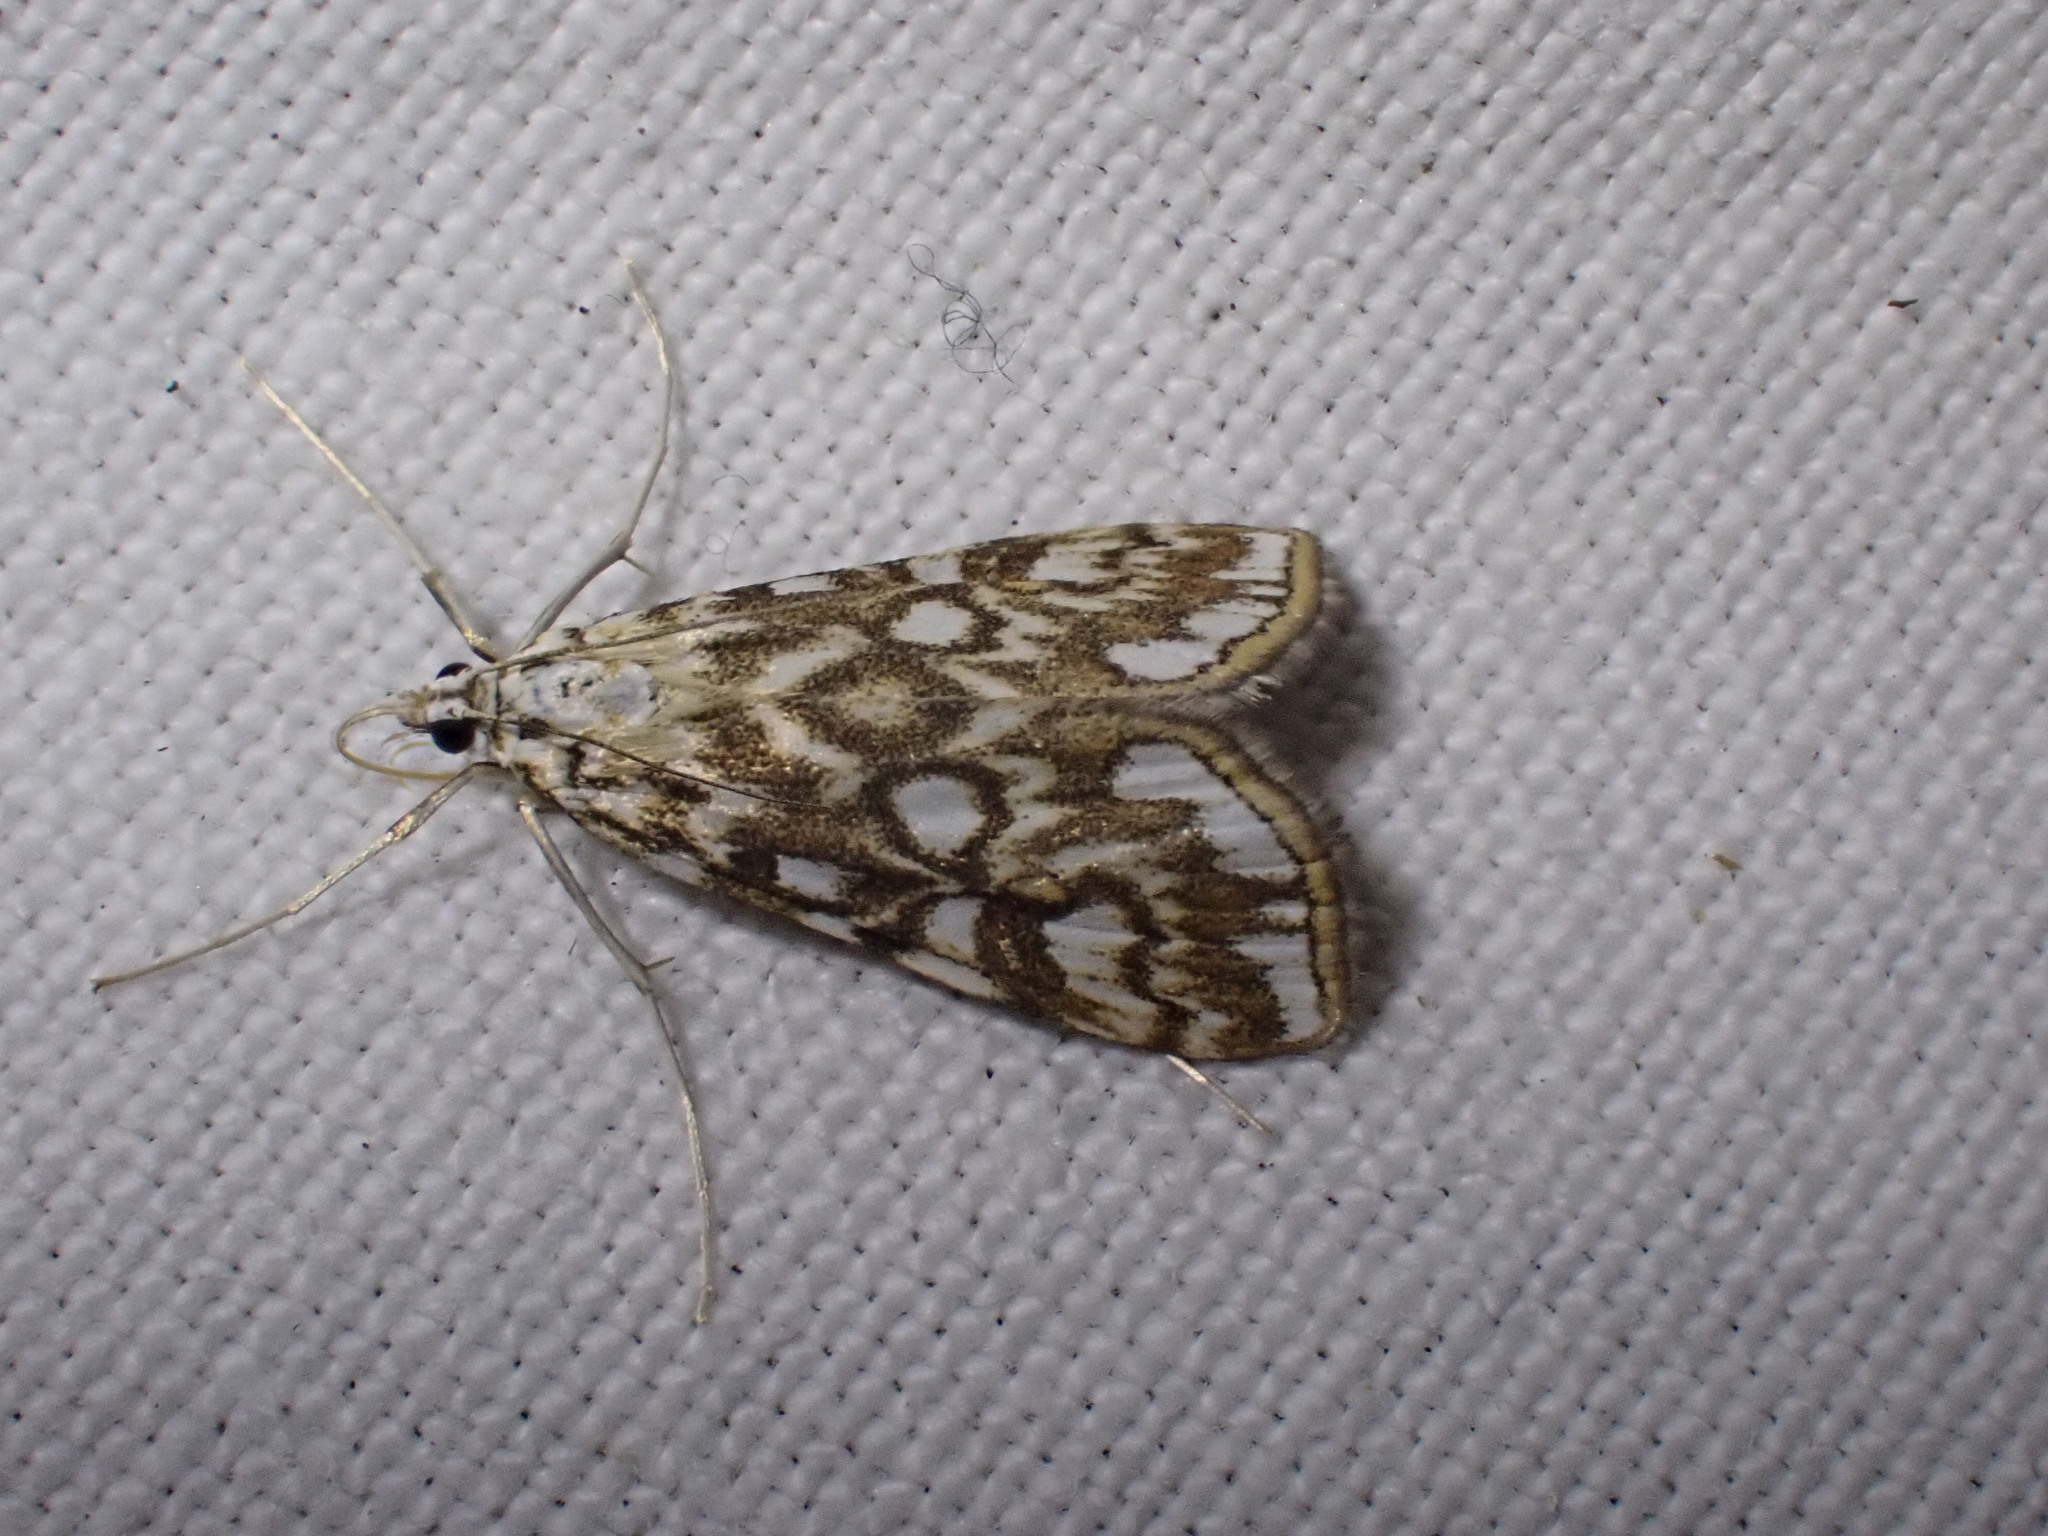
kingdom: Animalia
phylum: Arthropoda
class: Insecta
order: Lepidoptera
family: Crambidae
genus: Elophila
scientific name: Elophila nymphaeata
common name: Brown china-mark
